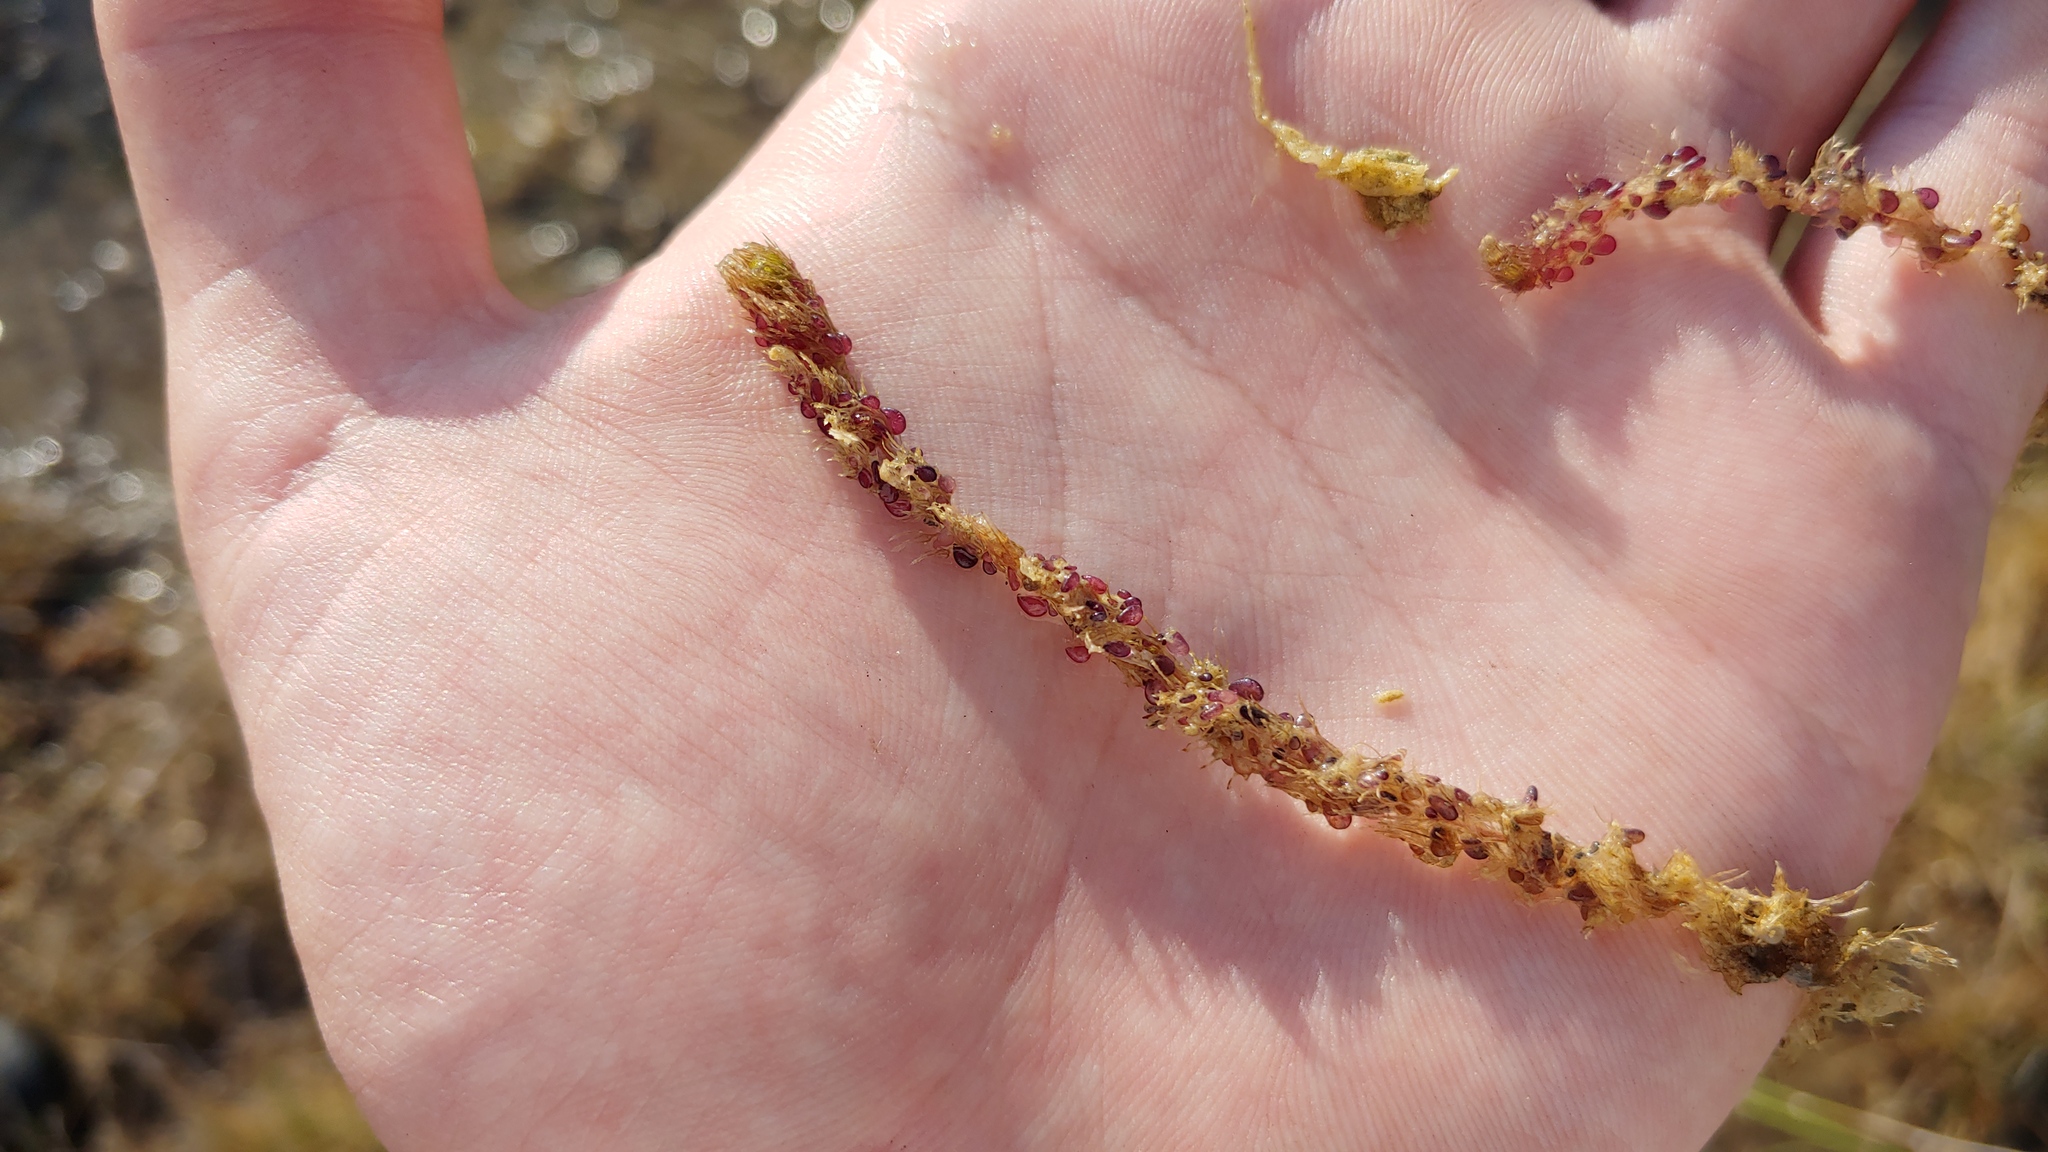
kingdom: Plantae
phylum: Tracheophyta
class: Magnoliopsida
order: Lamiales
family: Lentibulariaceae
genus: Utricularia
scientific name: Utricularia macrorhiza
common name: Common bladderwort
